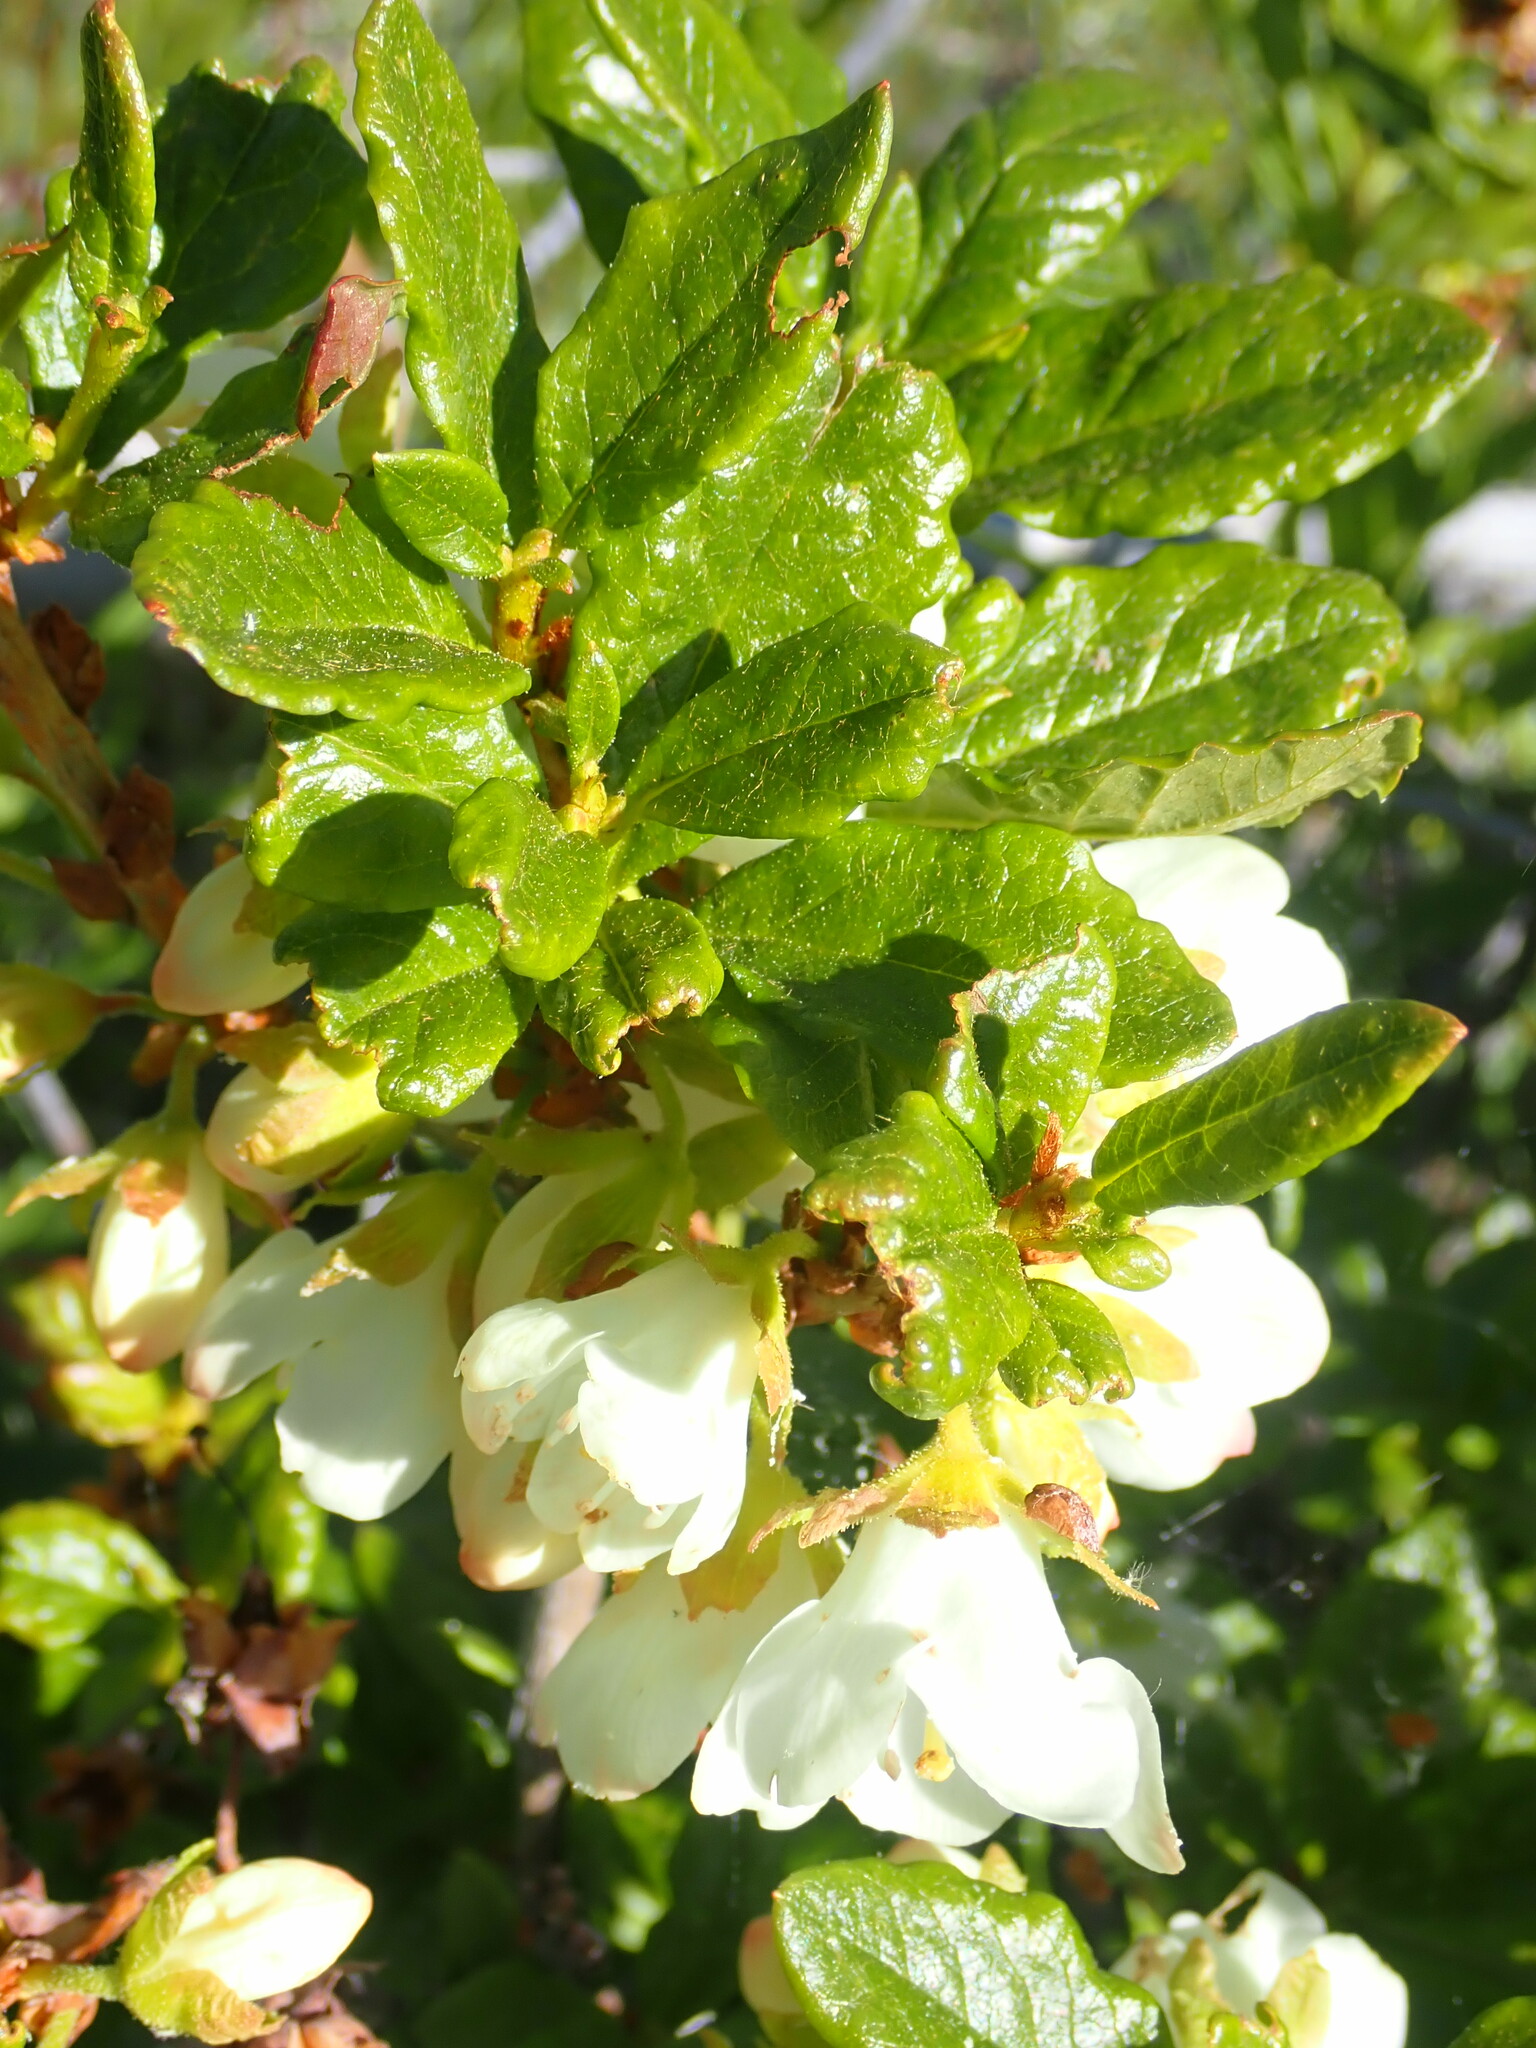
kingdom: Plantae
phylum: Tracheophyta
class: Magnoliopsida
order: Ericales
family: Ericaceae
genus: Rhododendron
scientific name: Rhododendron albiflorum
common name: White rhododendron
